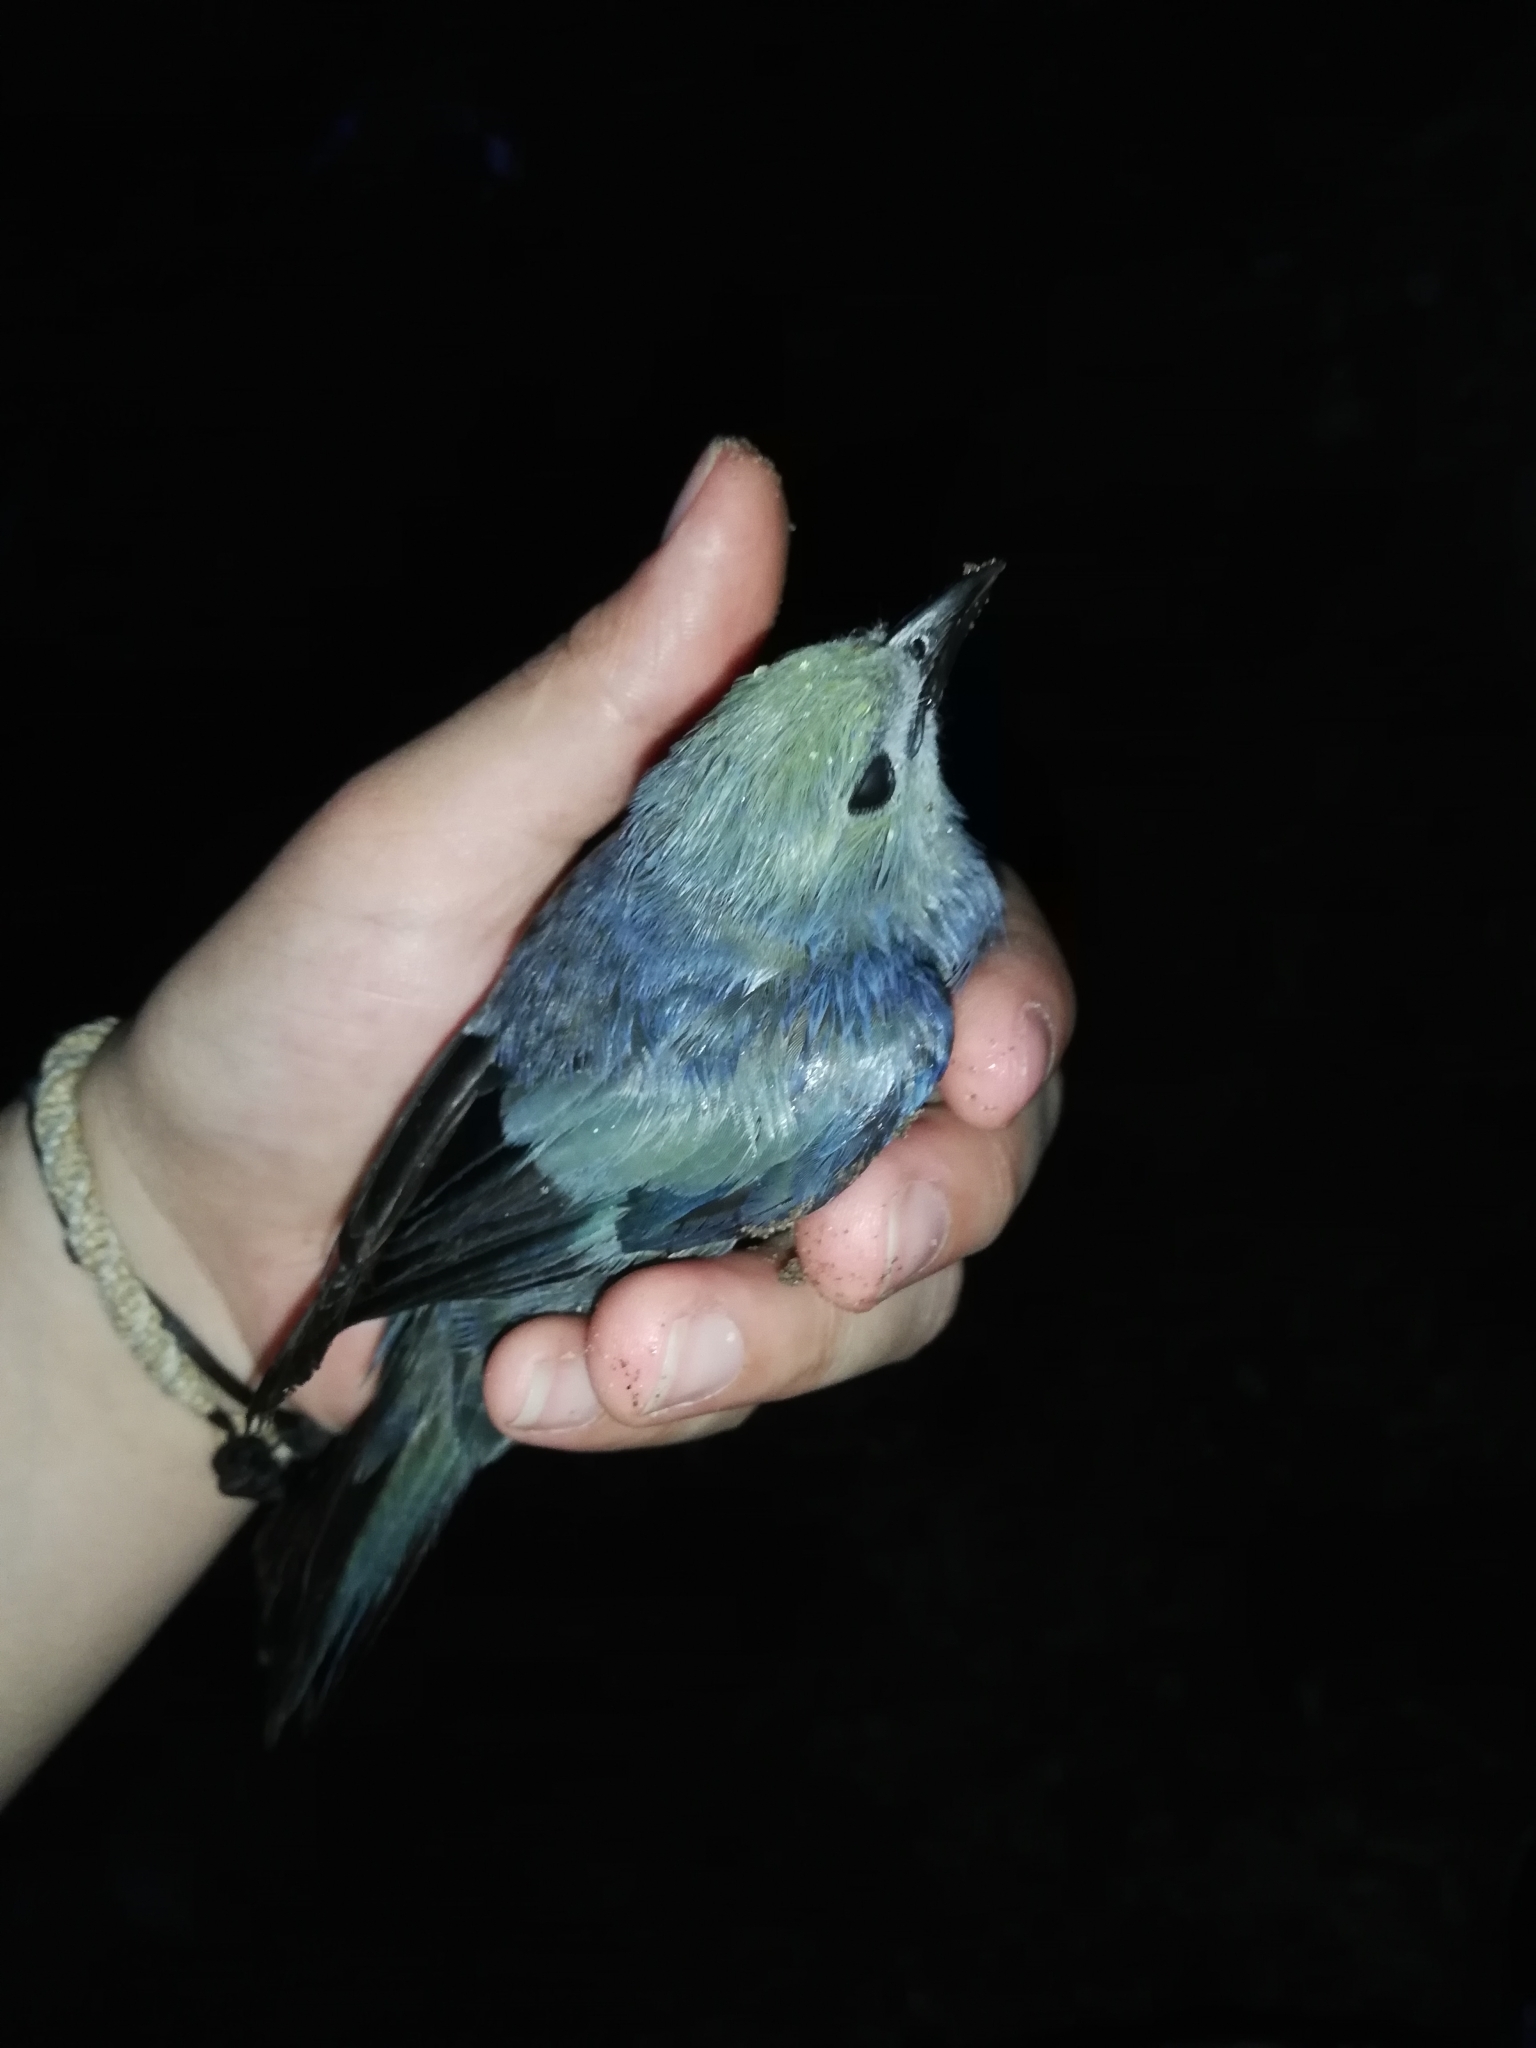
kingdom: Animalia
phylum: Chordata
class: Aves
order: Passeriformes
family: Thraupidae
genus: Thraupis
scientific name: Thraupis palmarum
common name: Palm tanager
